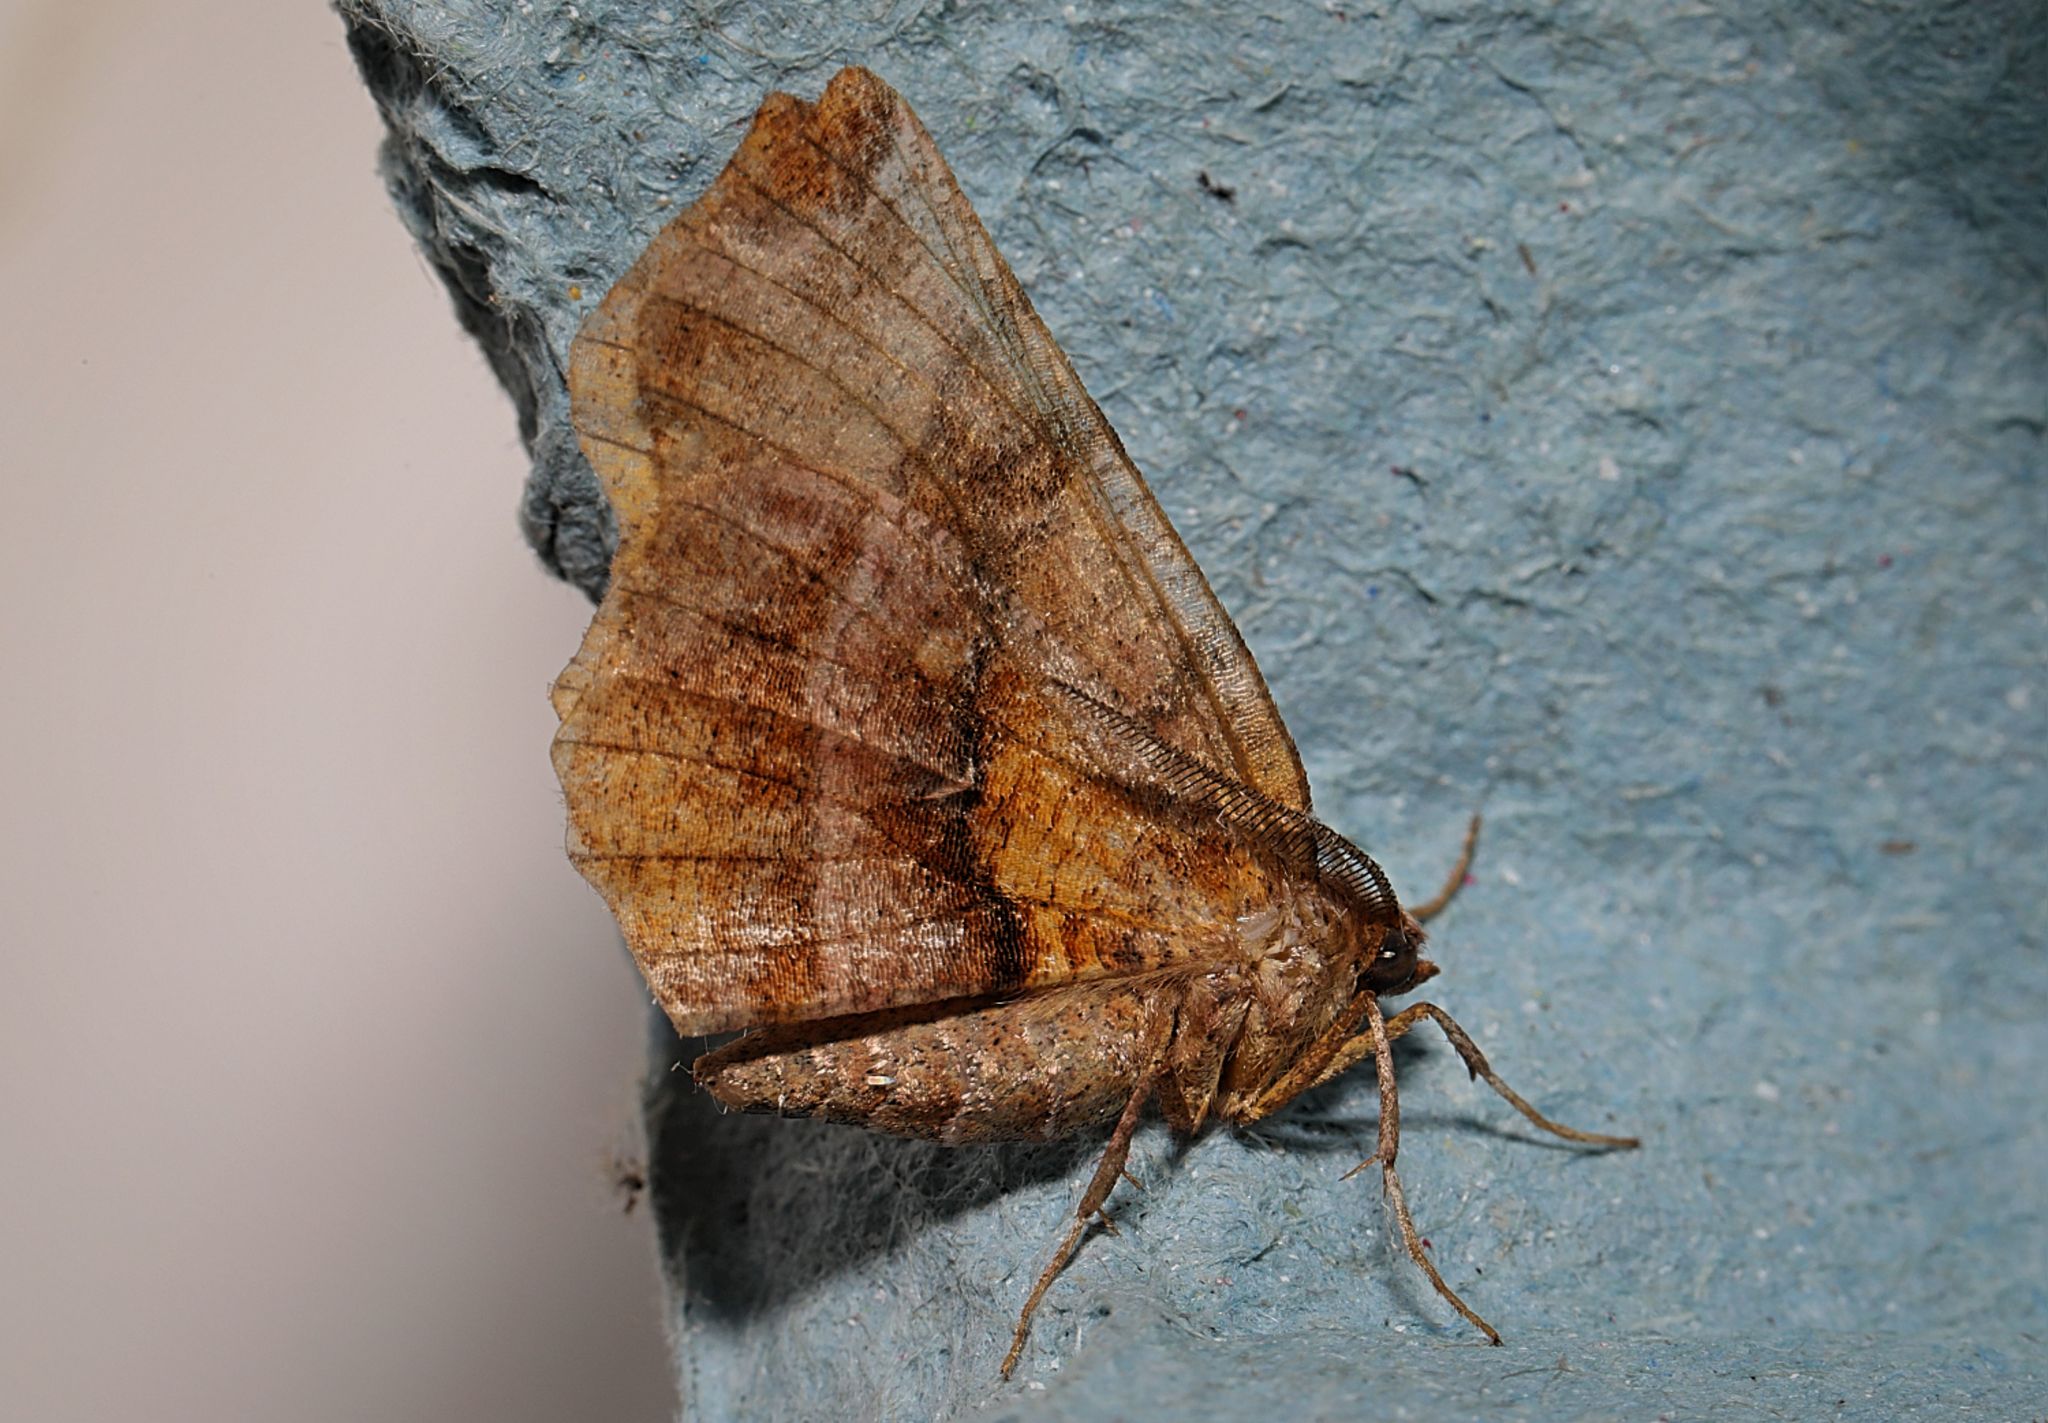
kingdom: Animalia
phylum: Arthropoda
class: Insecta
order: Lepidoptera
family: Geometridae
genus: Selenia
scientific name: Selenia dentaria
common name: Early thorn
